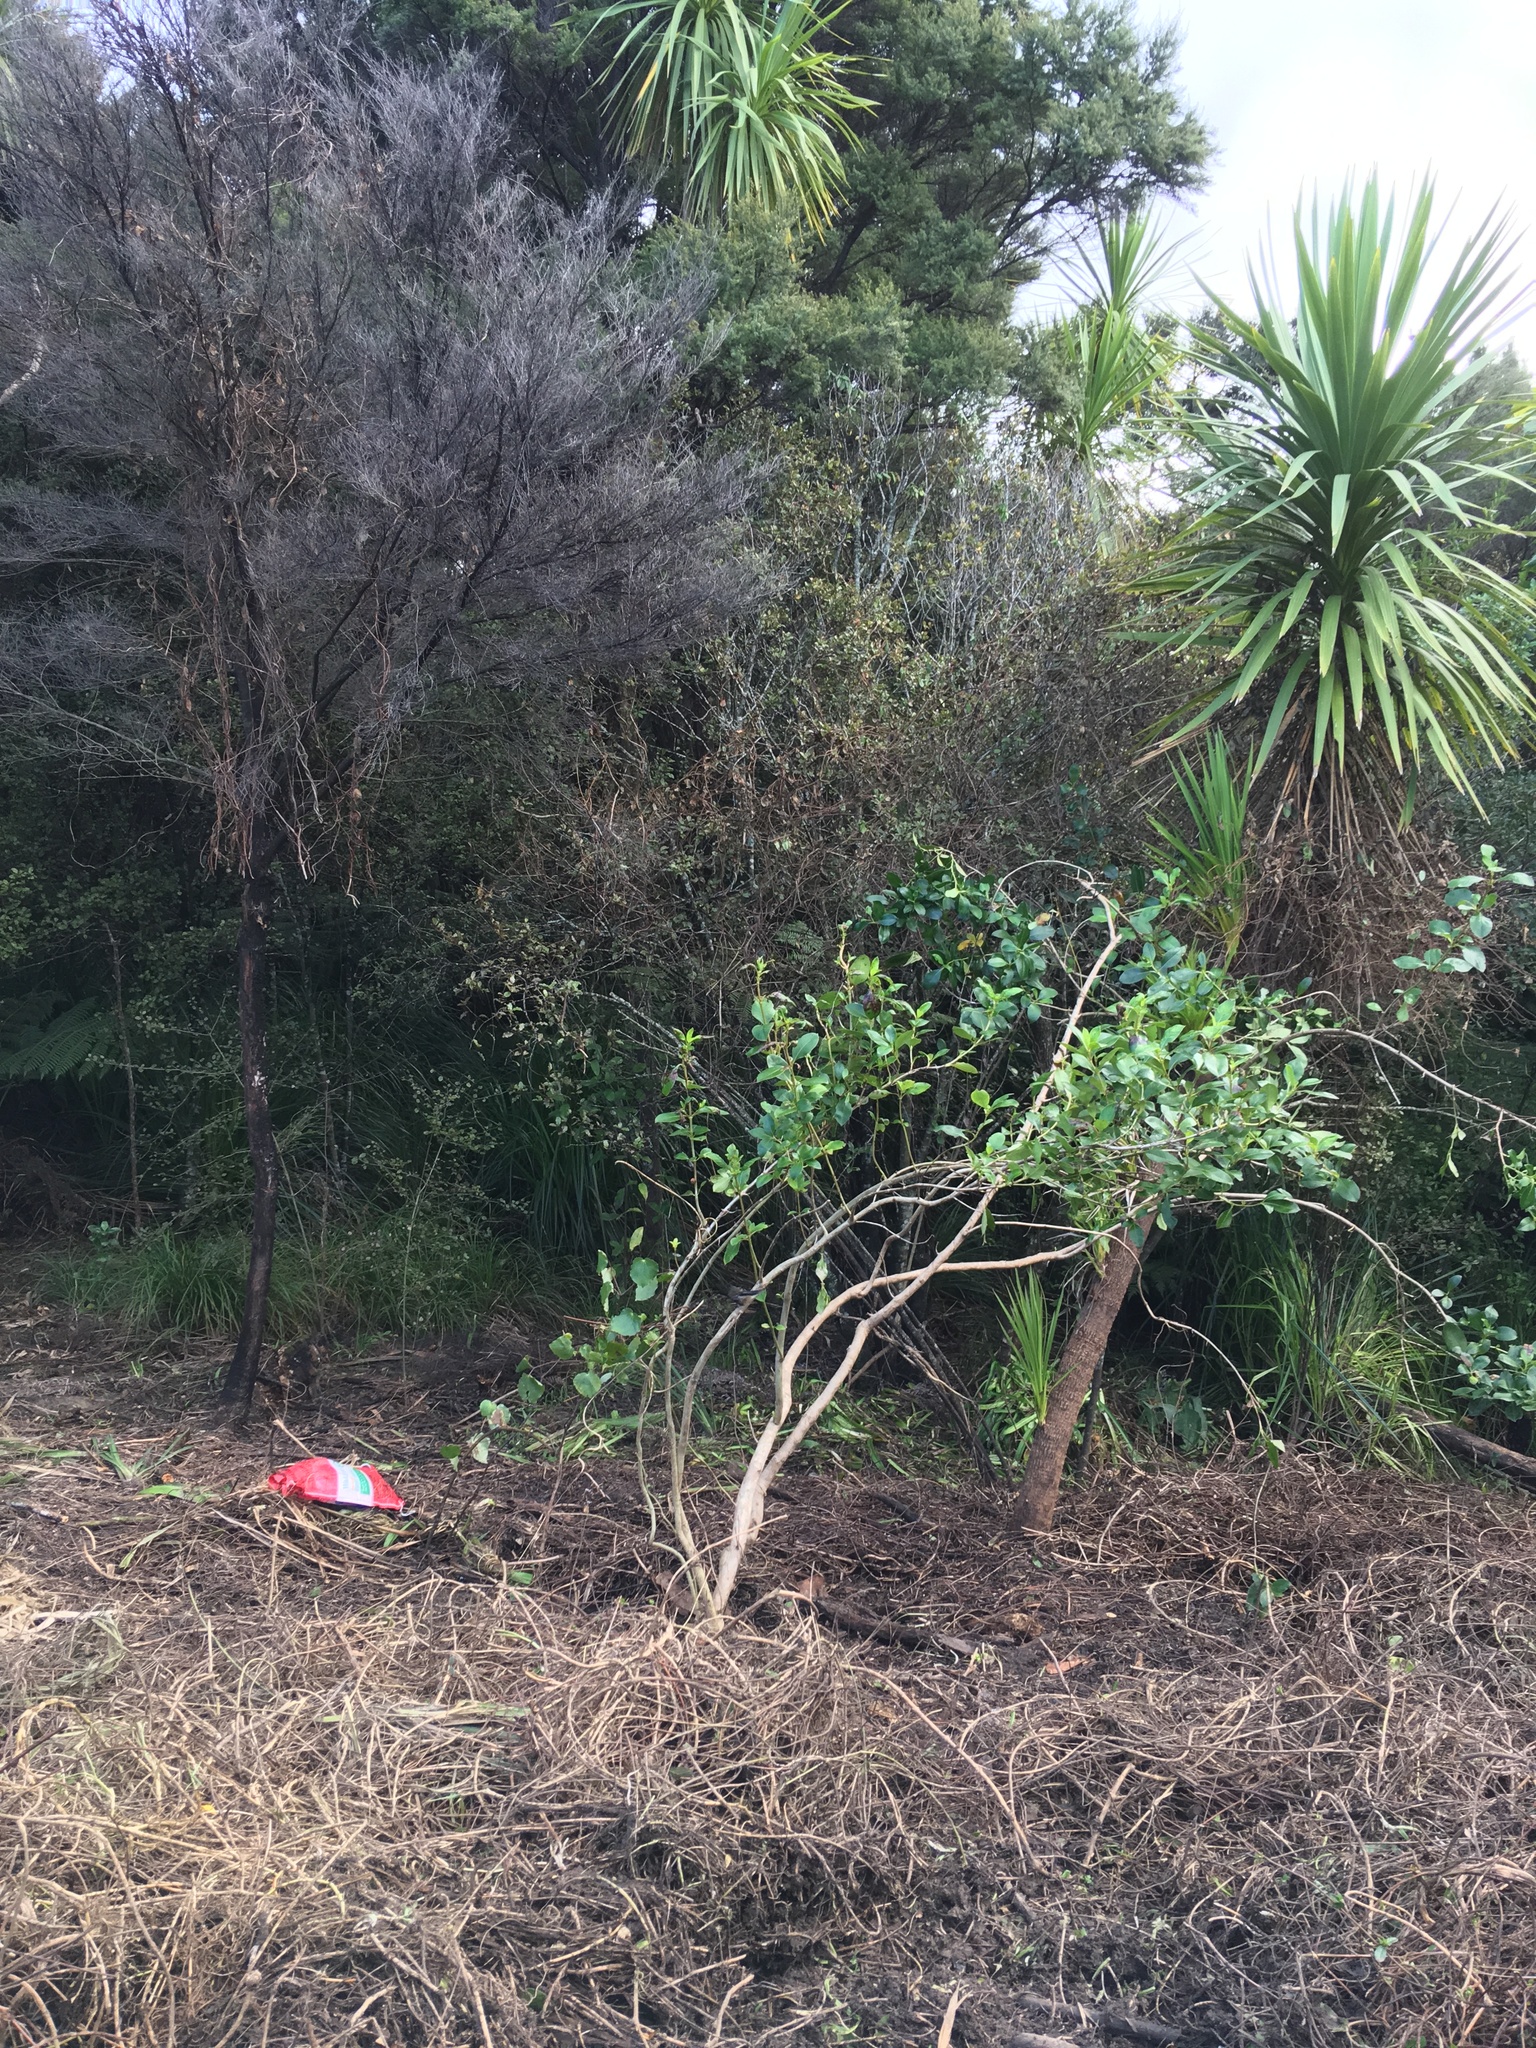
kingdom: Plantae
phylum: Tracheophyta
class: Magnoliopsida
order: Ericales
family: Primulaceae
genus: Myrsine
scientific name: Myrsine australis
